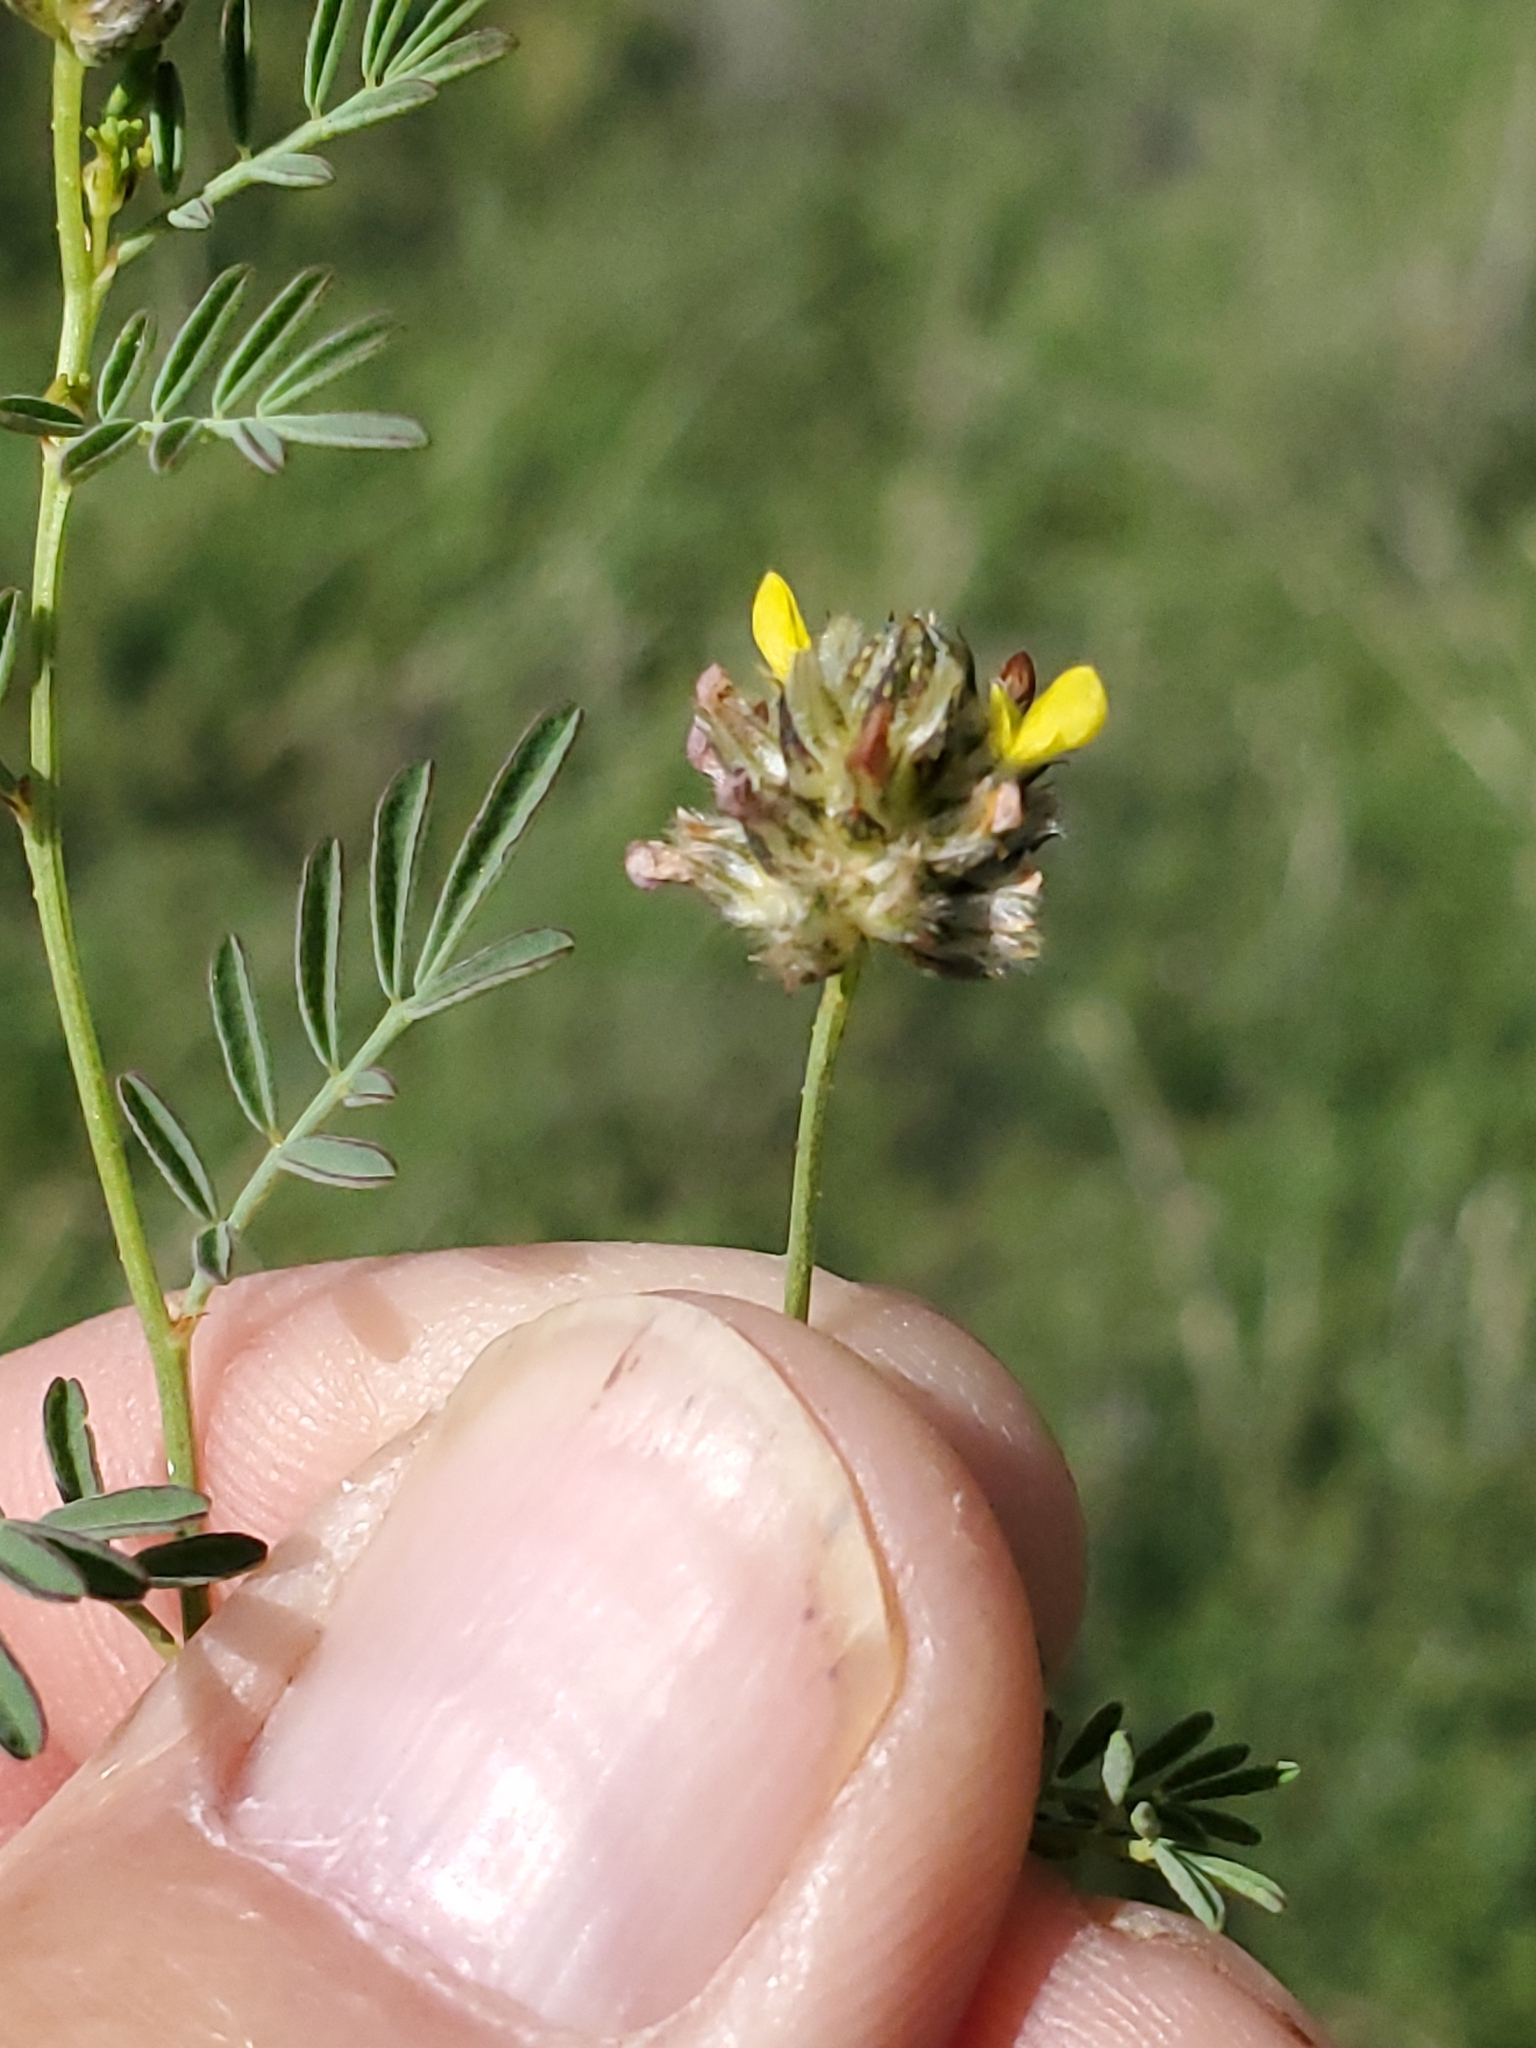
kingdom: Plantae
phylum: Tracheophyta
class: Magnoliopsida
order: Fabales
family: Fabaceae
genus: Dalea
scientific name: Dalea brachystachya
